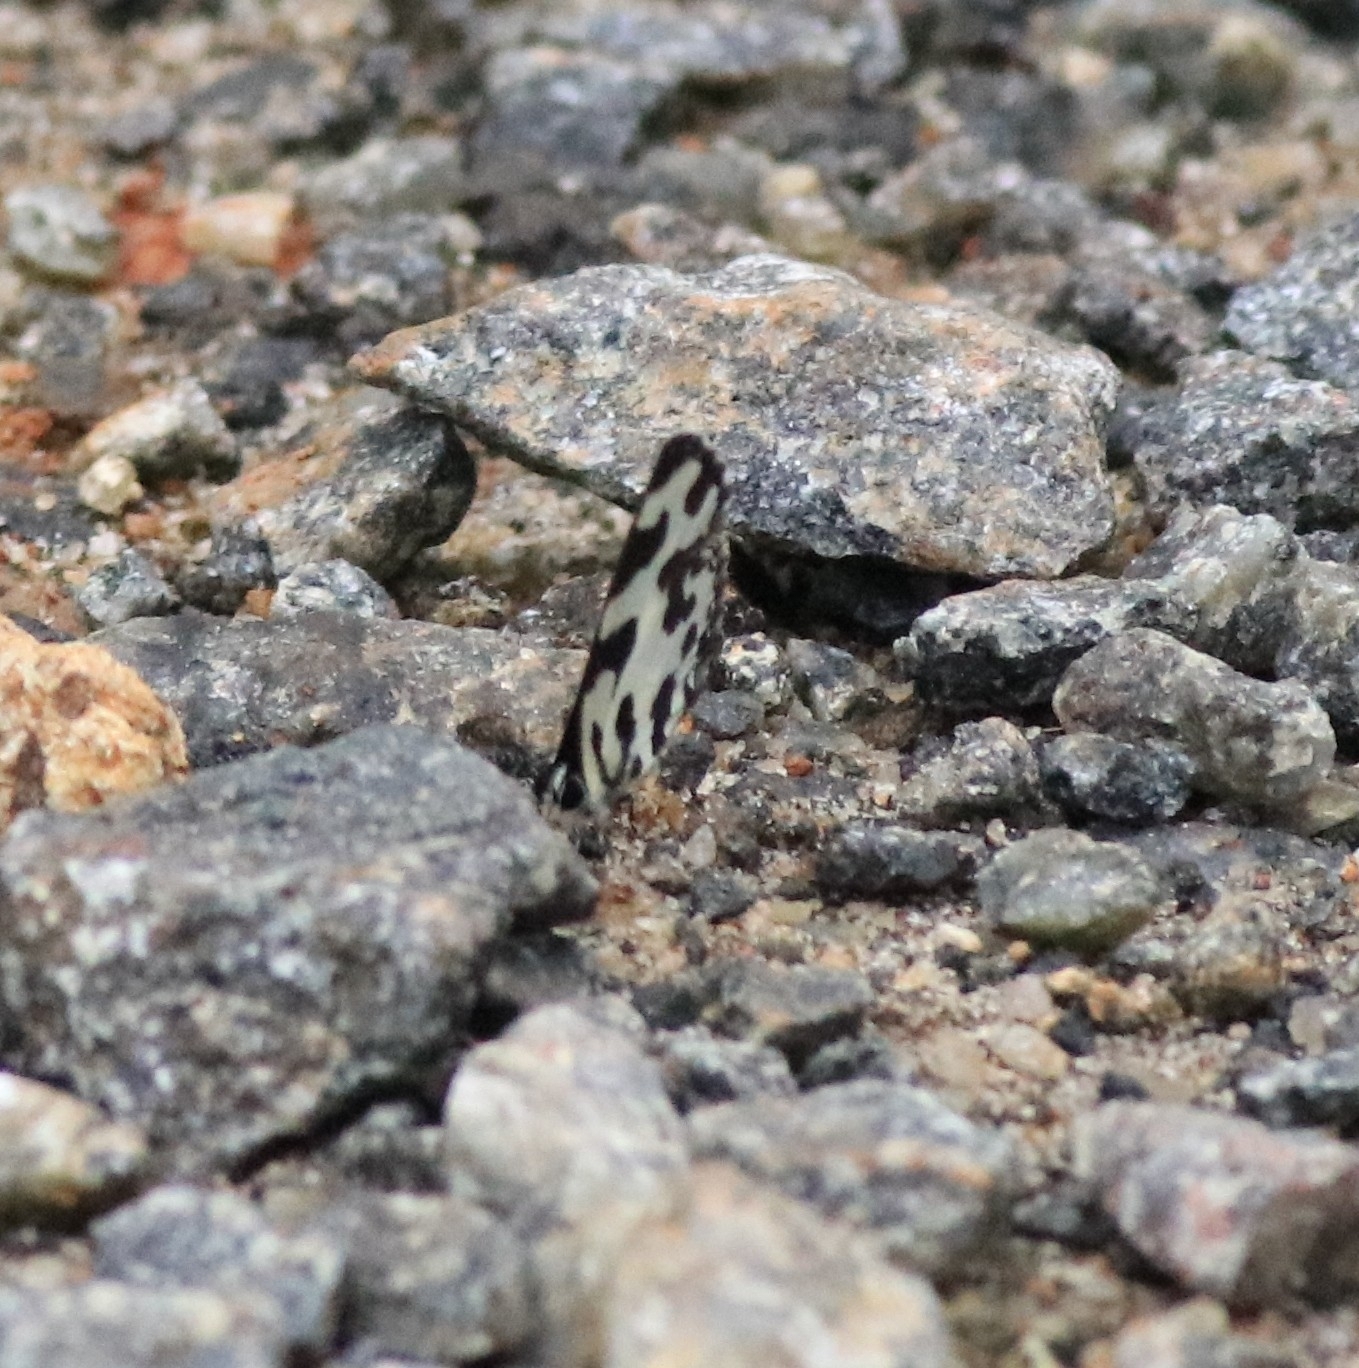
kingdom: Animalia
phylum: Arthropoda
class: Insecta
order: Lepidoptera
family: Lycaenidae
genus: Caleta
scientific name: Caleta decidia
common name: Angled pierrot
